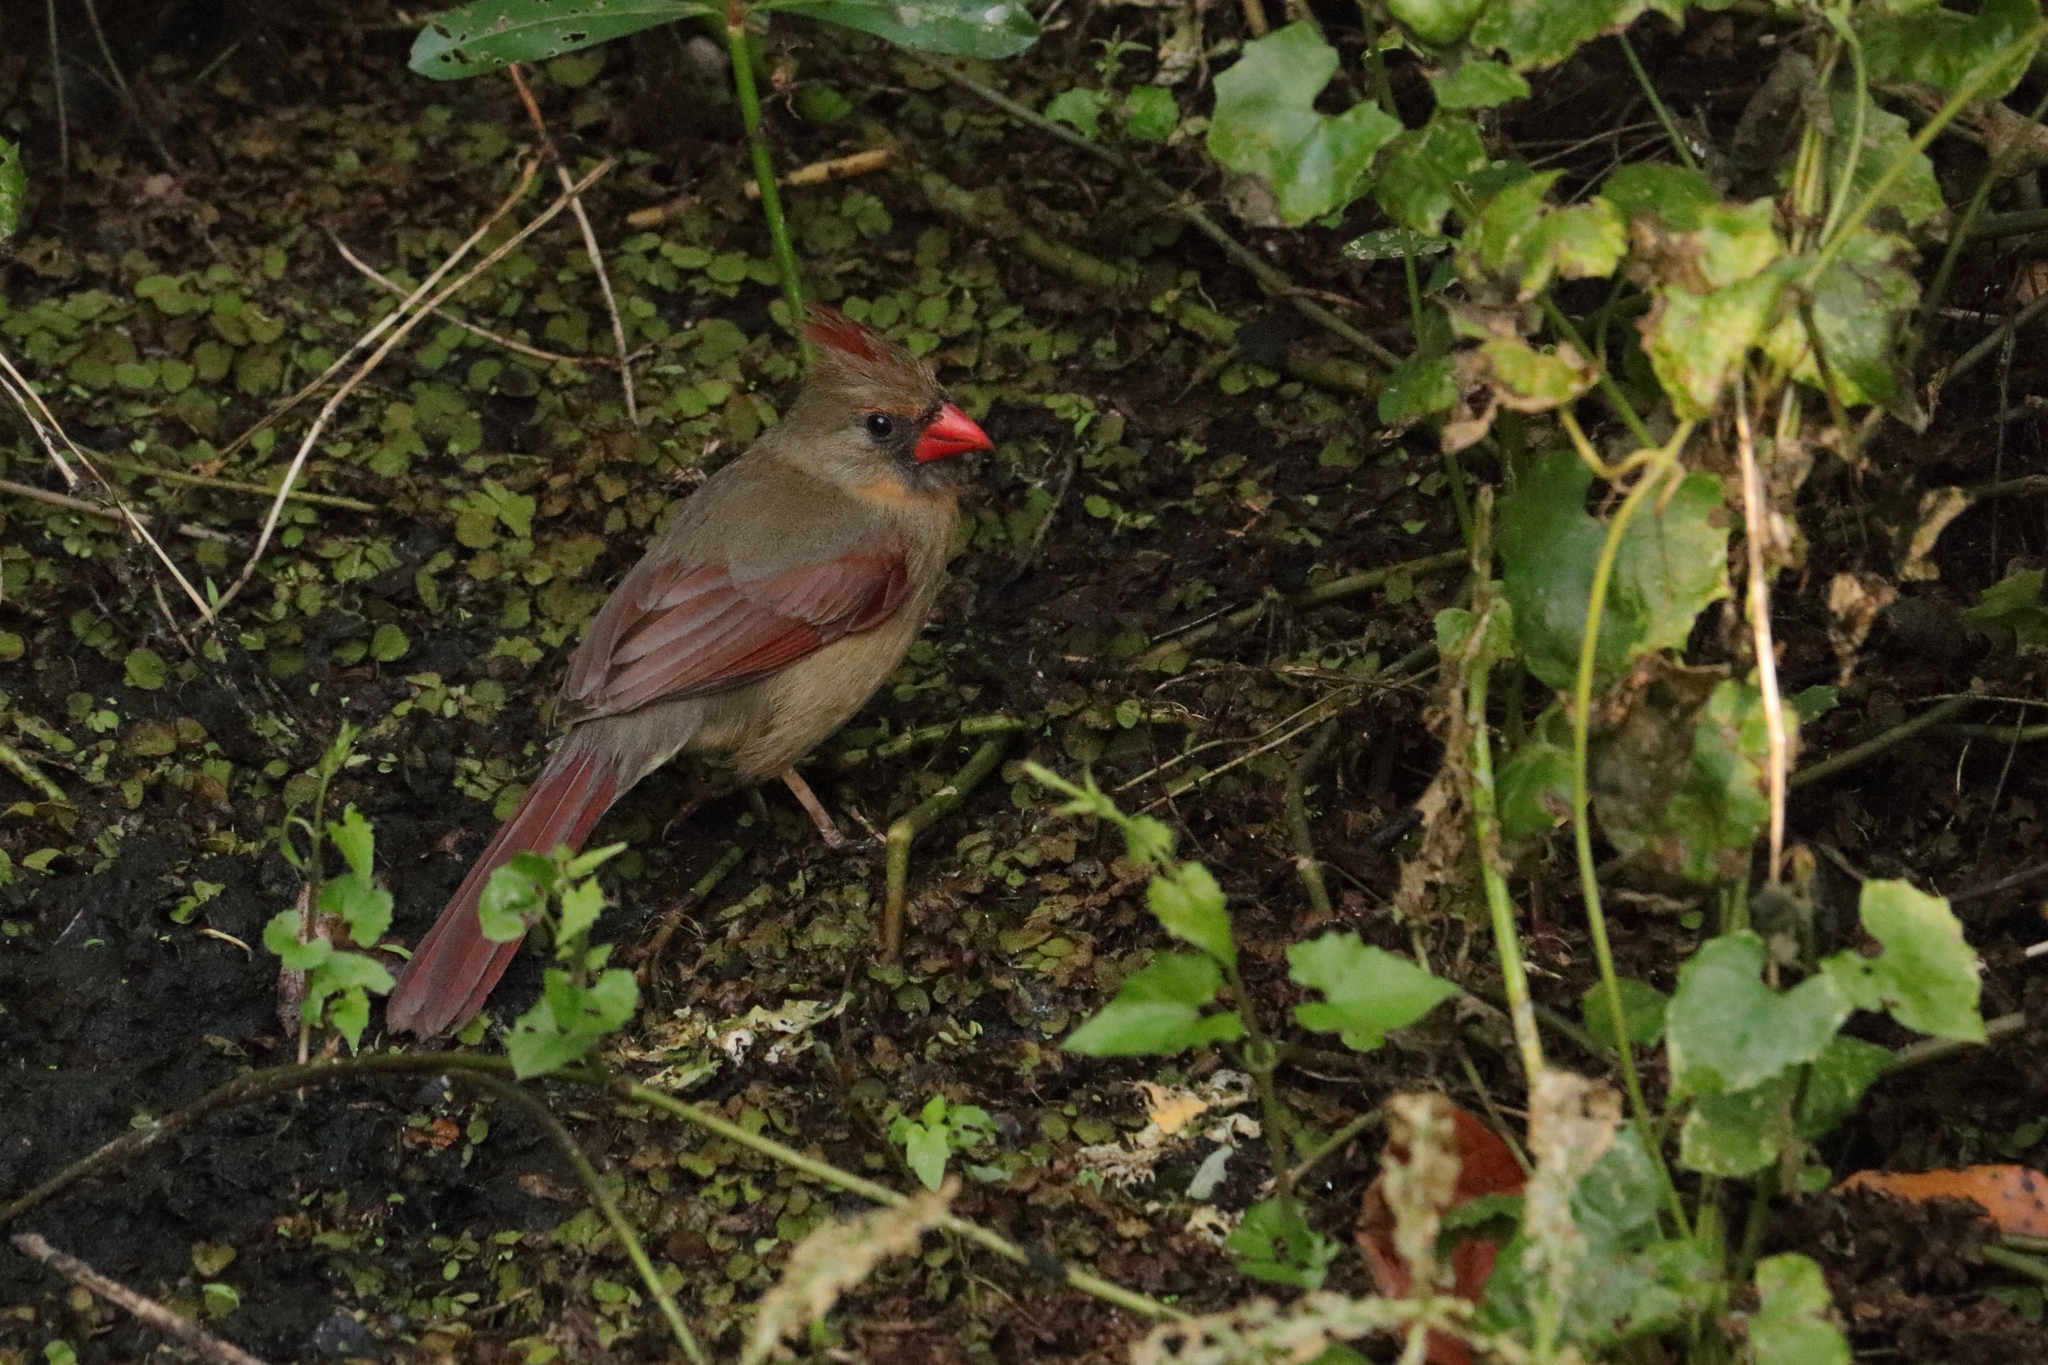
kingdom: Animalia
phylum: Chordata
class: Aves
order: Passeriformes
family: Cardinalidae
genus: Cardinalis
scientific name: Cardinalis cardinalis
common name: Northern cardinal
